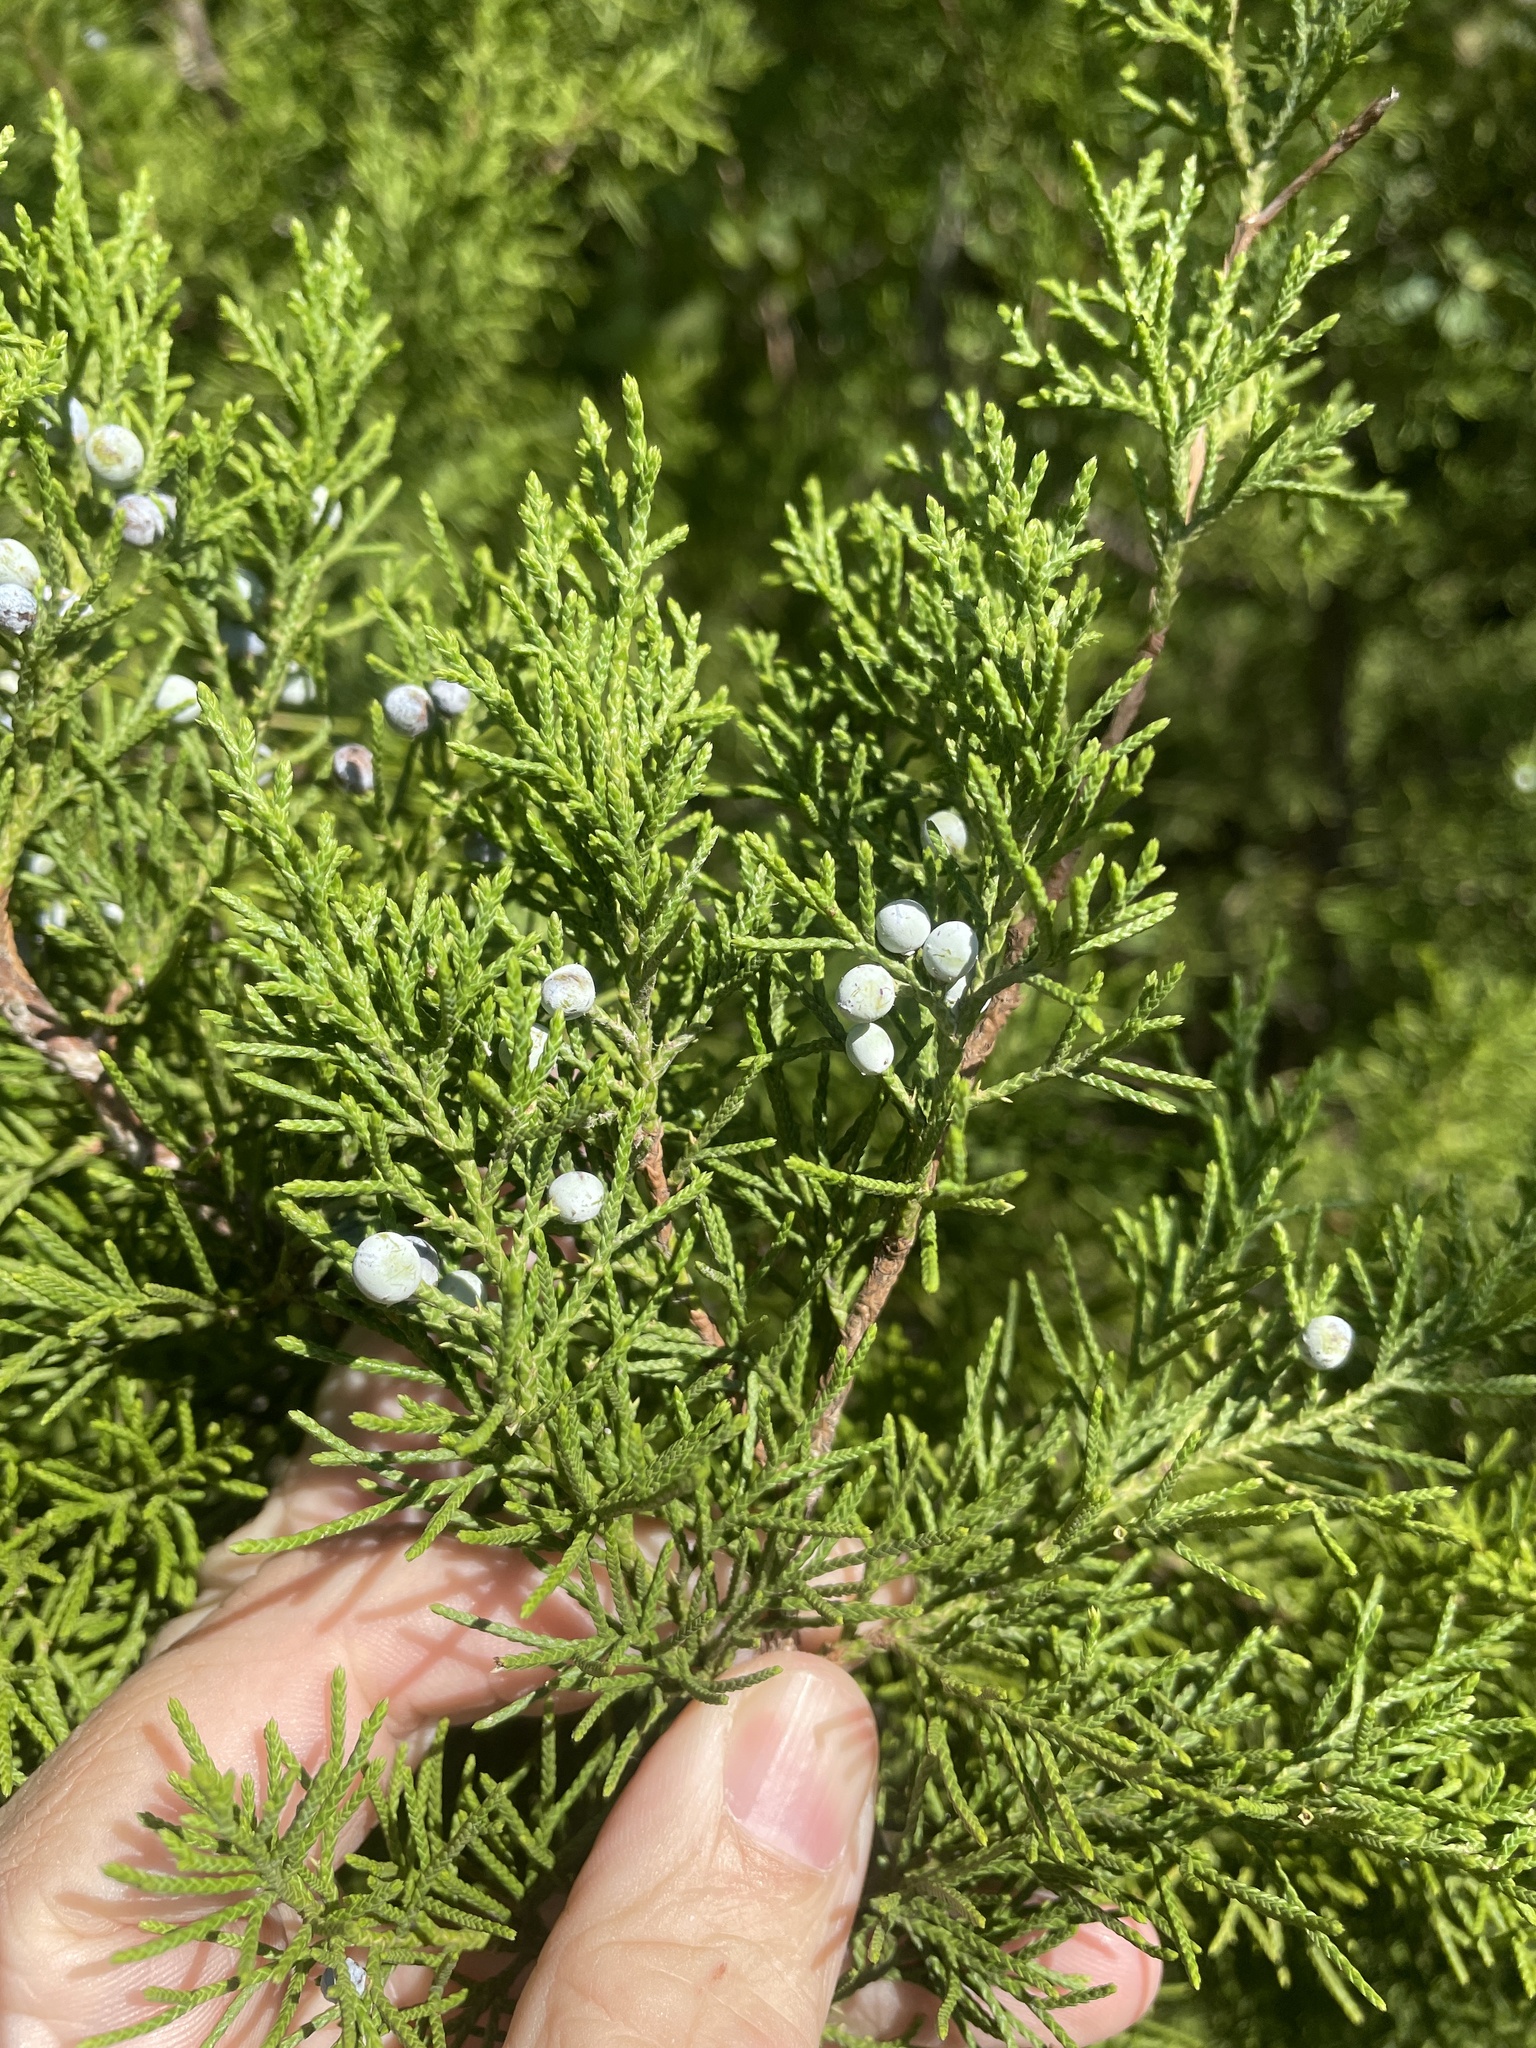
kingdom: Plantae
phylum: Tracheophyta
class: Pinopsida
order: Pinales
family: Cupressaceae
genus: Juniperus
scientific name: Juniperus virginiana
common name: Red juniper
